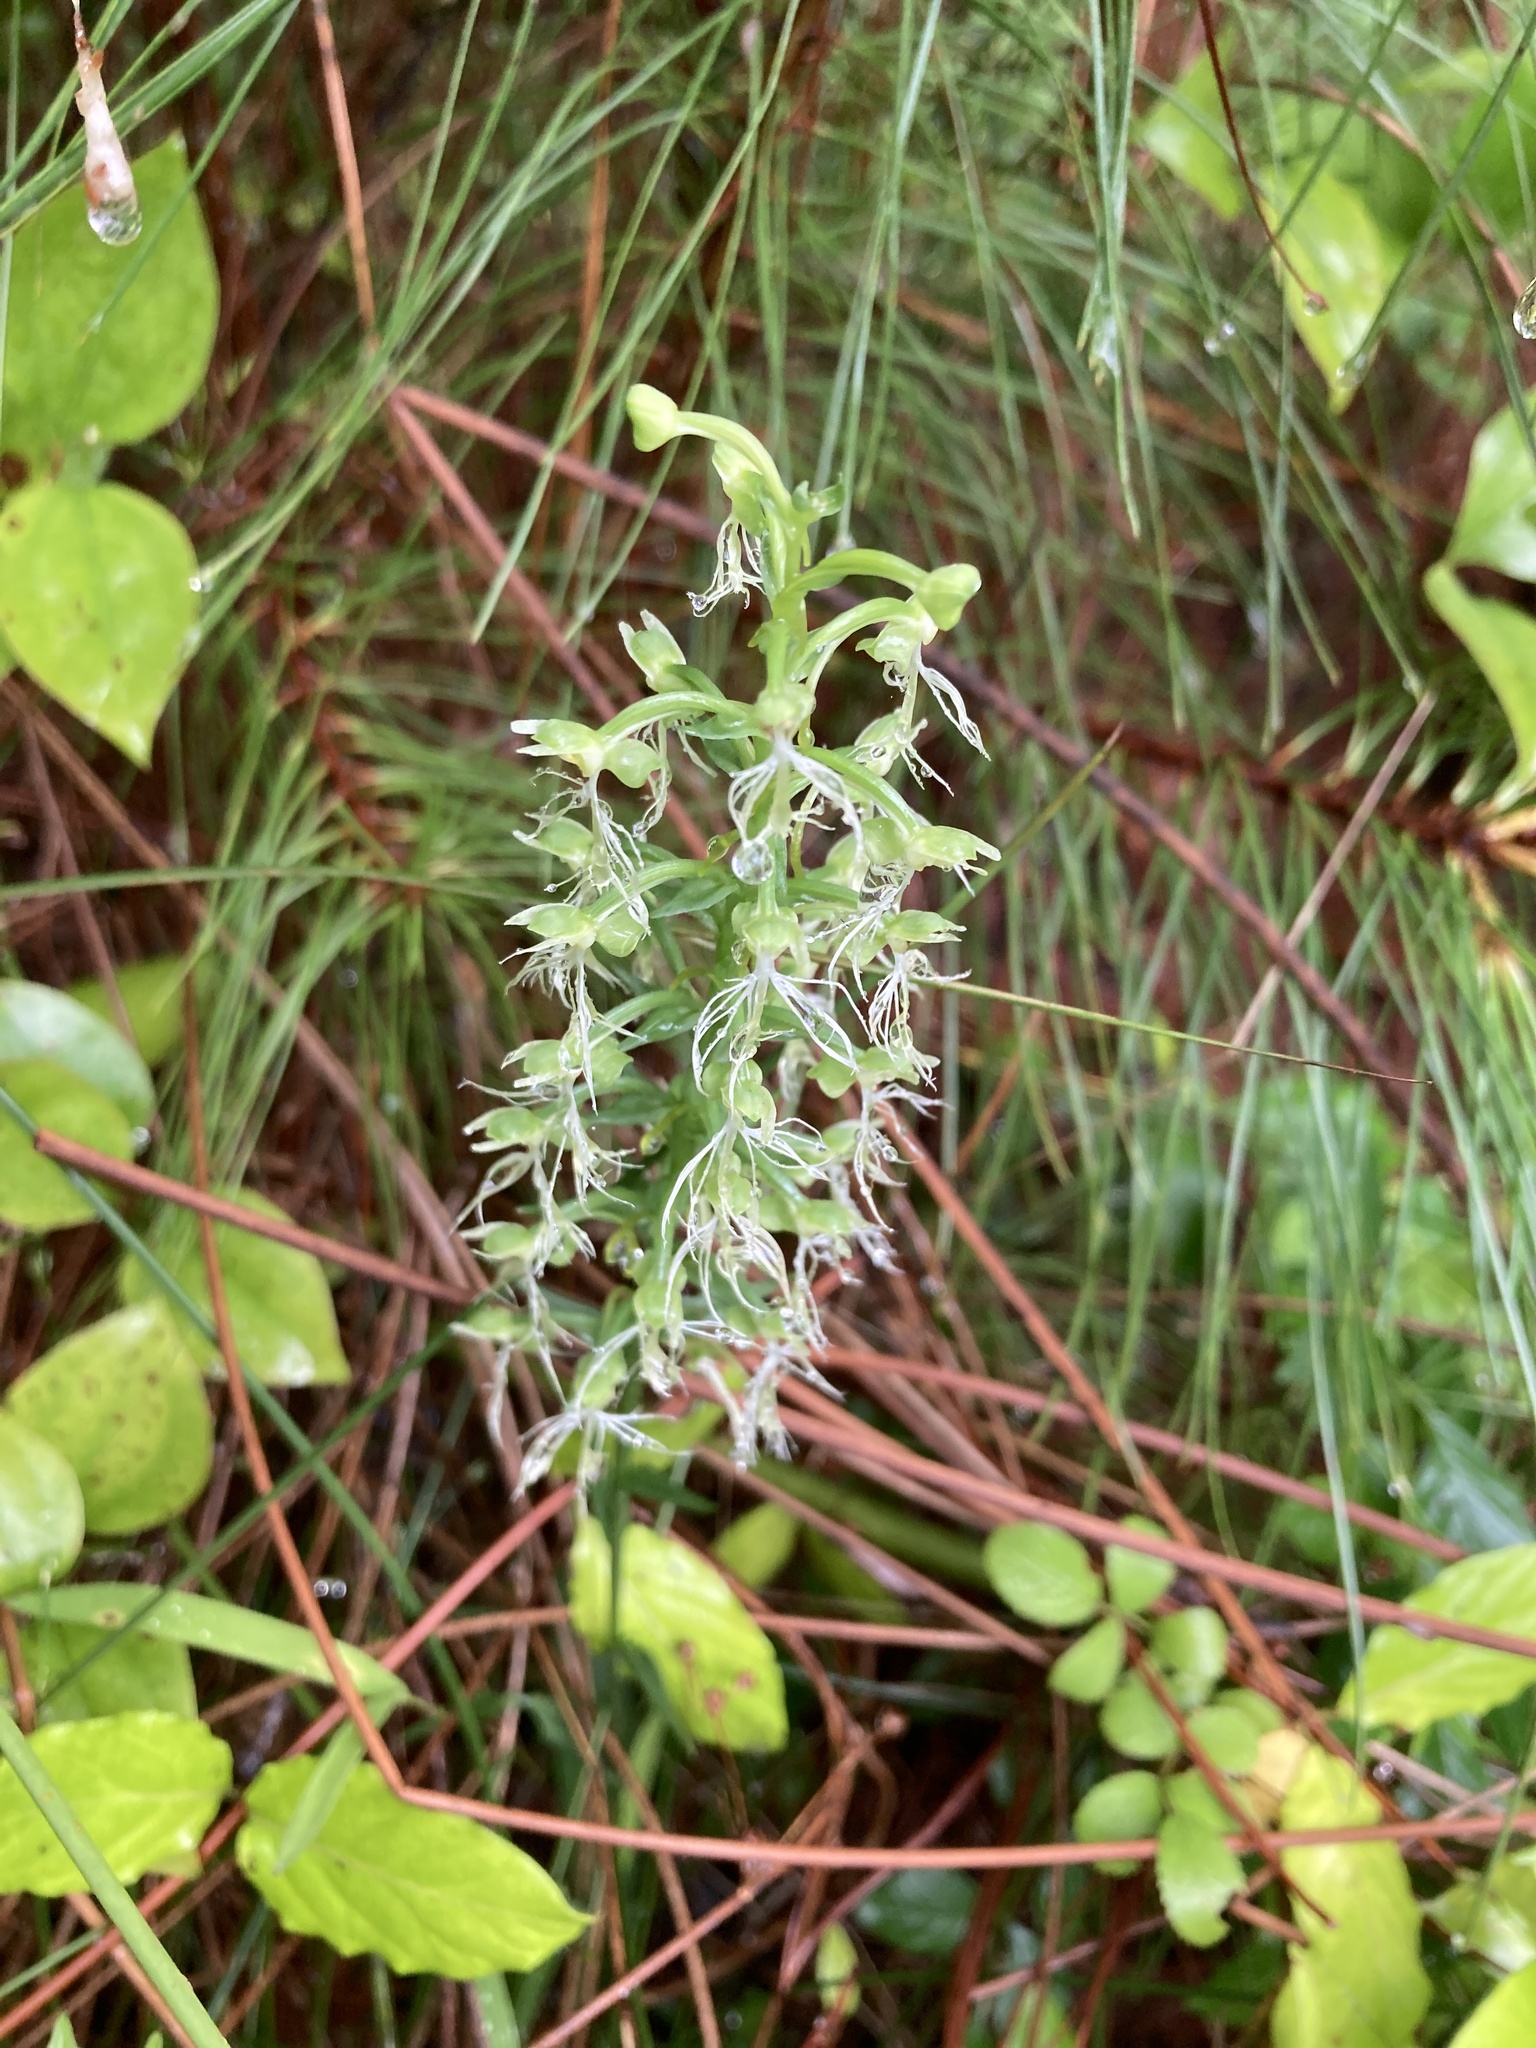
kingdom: Plantae
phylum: Tracheophyta
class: Liliopsida
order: Asparagales
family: Orchidaceae
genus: Platanthera
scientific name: Platanthera lacera
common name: Green fringed orchid
